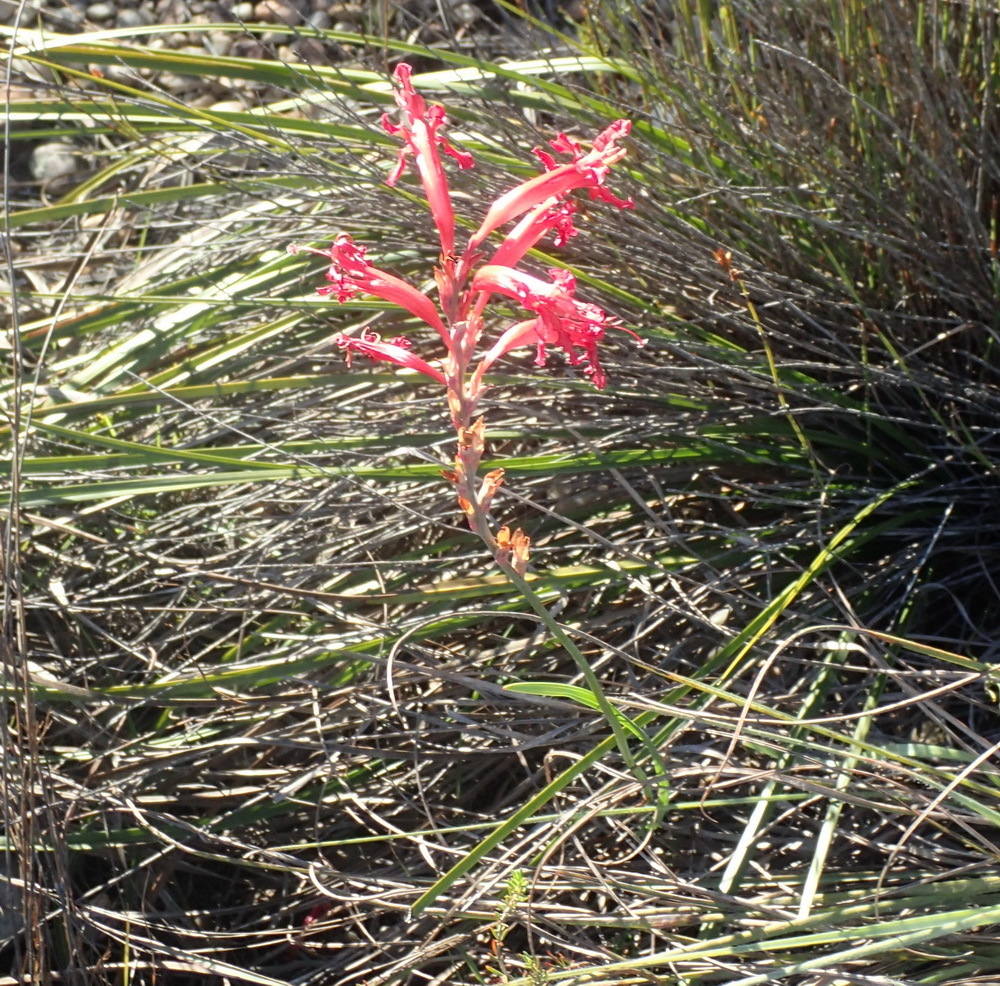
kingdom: Plantae
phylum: Tracheophyta
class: Liliopsida
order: Asparagales
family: Iridaceae
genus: Tritoniopsis
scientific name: Tritoniopsis antholyza
